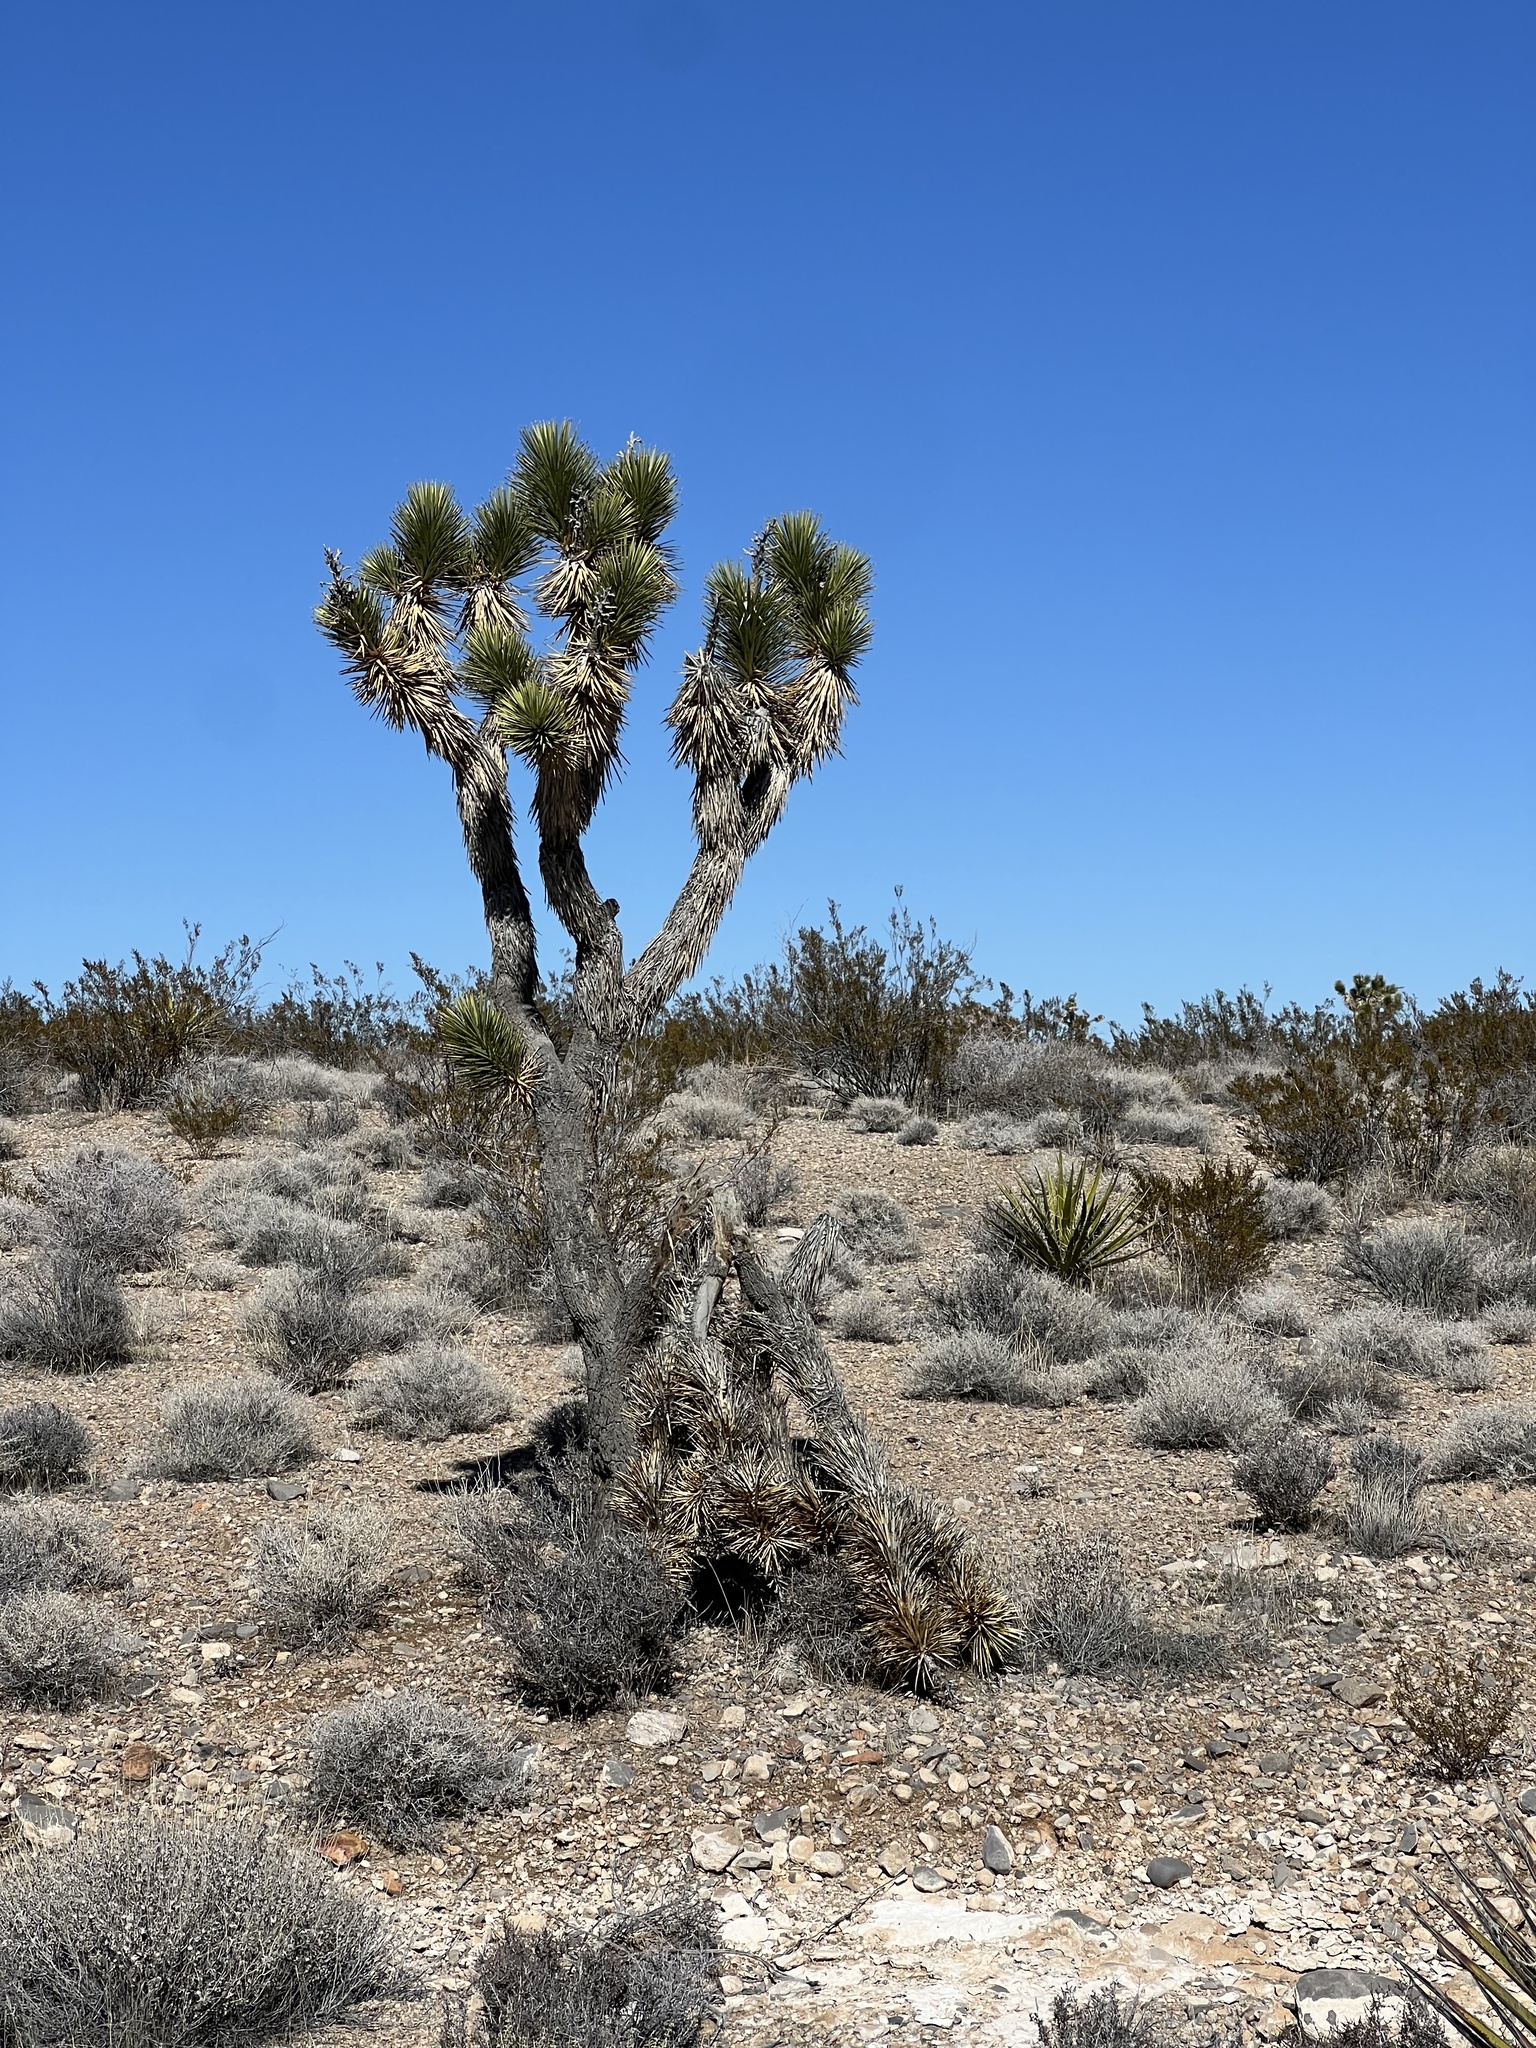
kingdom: Plantae
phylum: Tracheophyta
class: Liliopsida
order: Asparagales
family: Asparagaceae
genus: Yucca
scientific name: Yucca brevifolia
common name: Joshua tree
